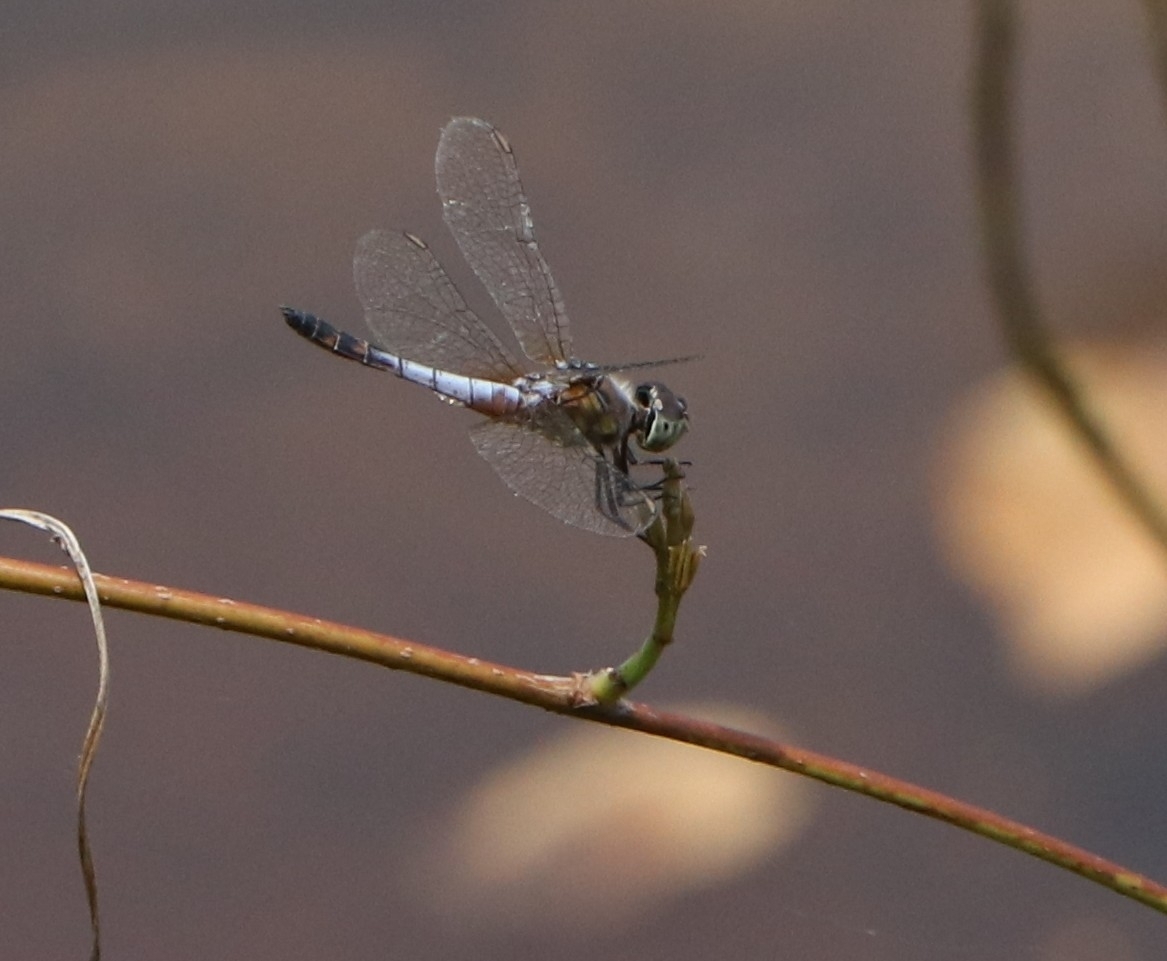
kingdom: Animalia
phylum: Arthropoda
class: Insecta
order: Odonata
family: Libellulidae
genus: Brachydiplax
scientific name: Brachydiplax chalybea
